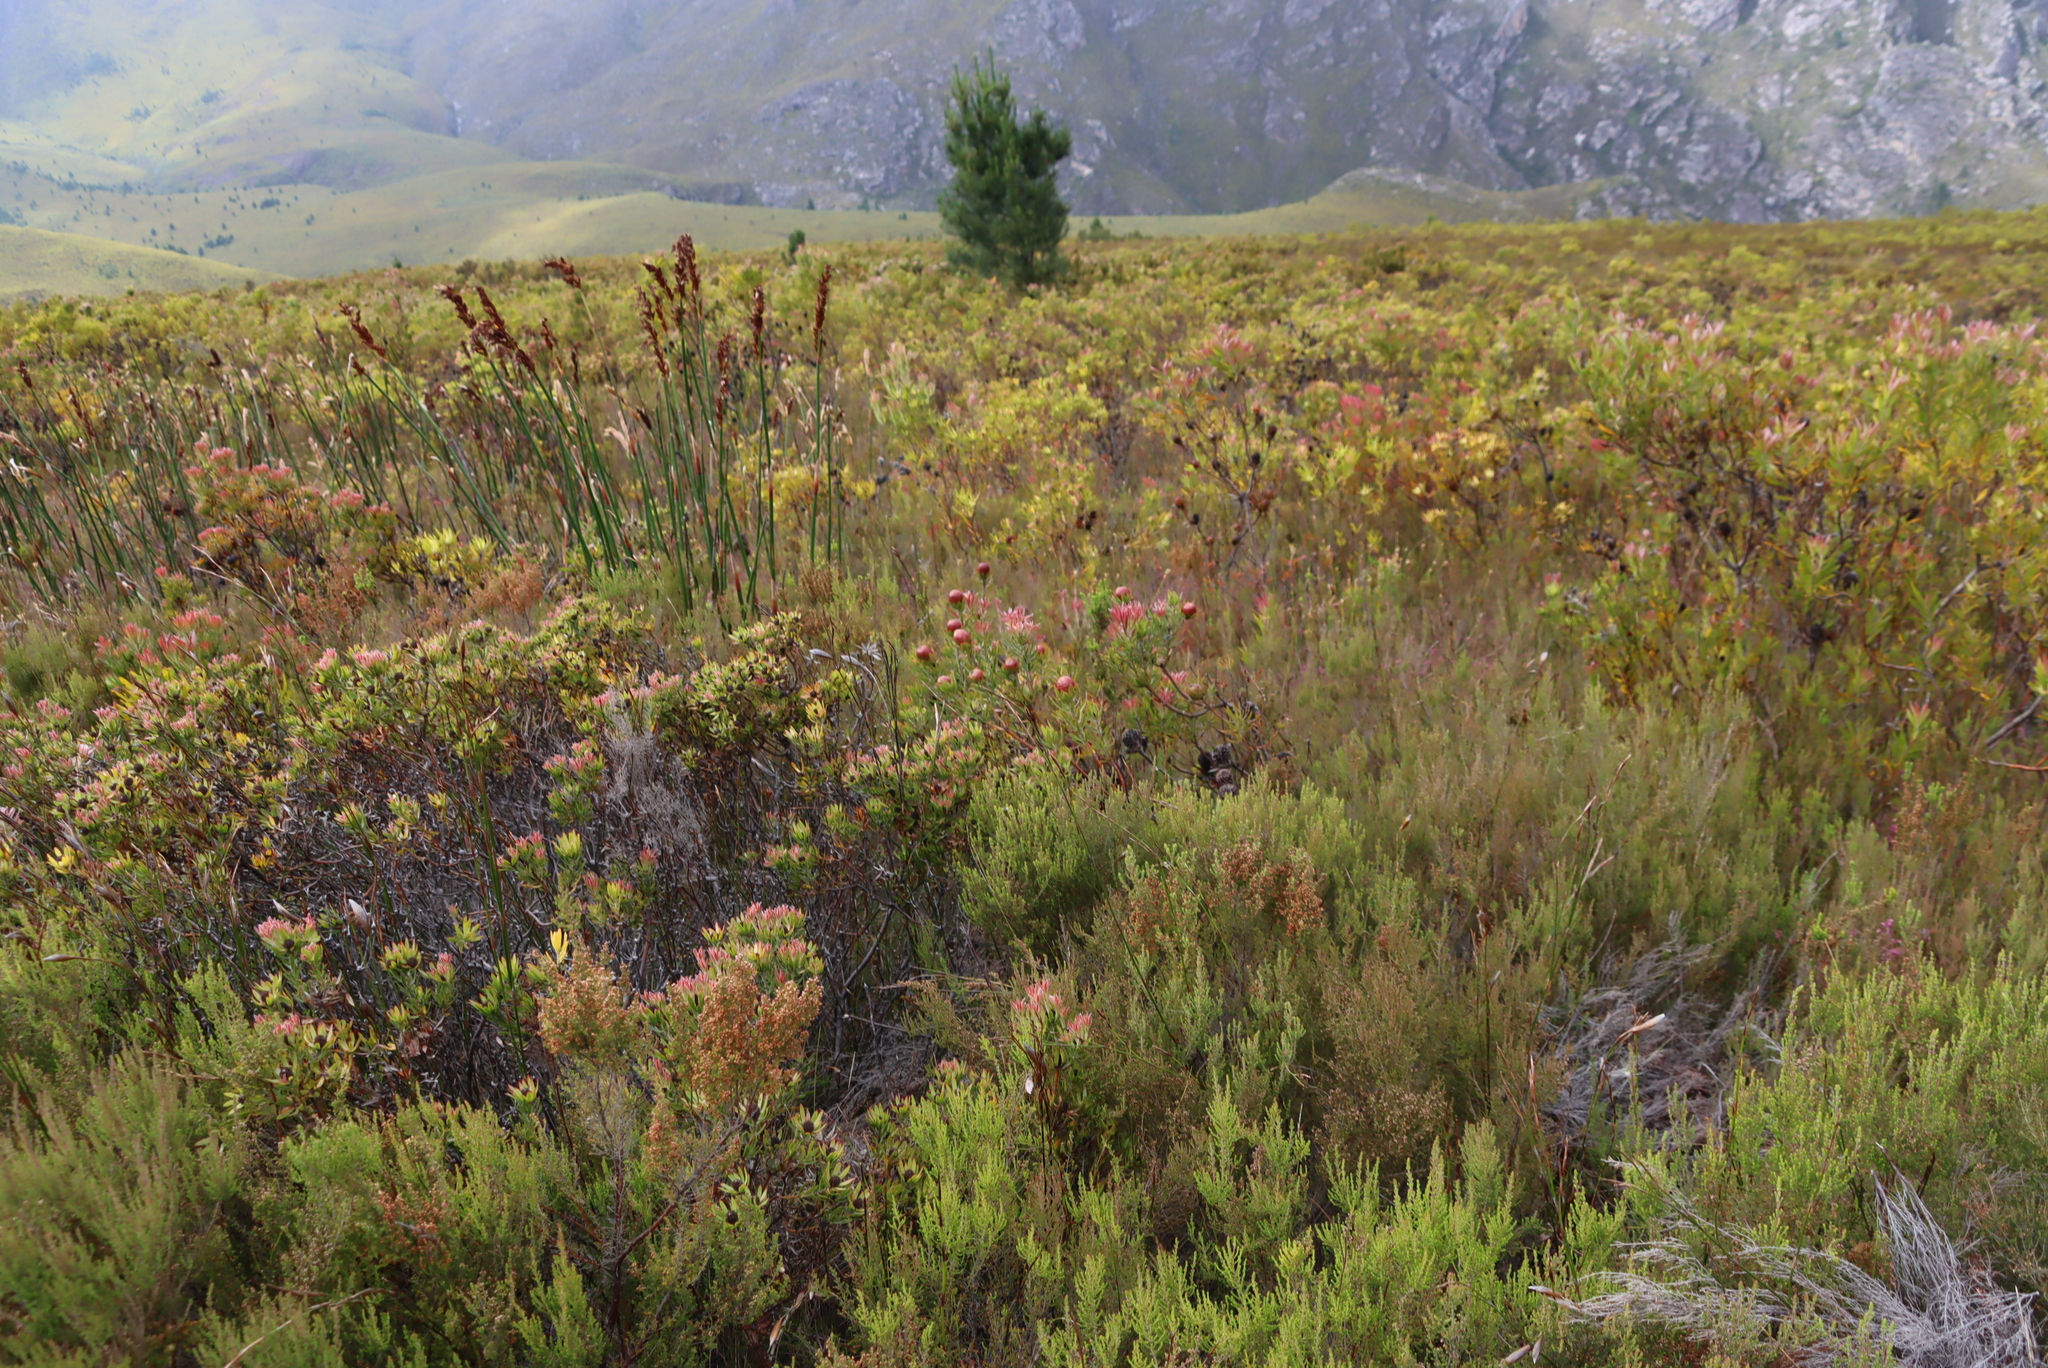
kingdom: Plantae
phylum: Tracheophyta
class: Magnoliopsida
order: Proteales
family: Proteaceae
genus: Leucadendron
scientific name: Leucadendron spissifolium
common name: Spear-leaf conebush
